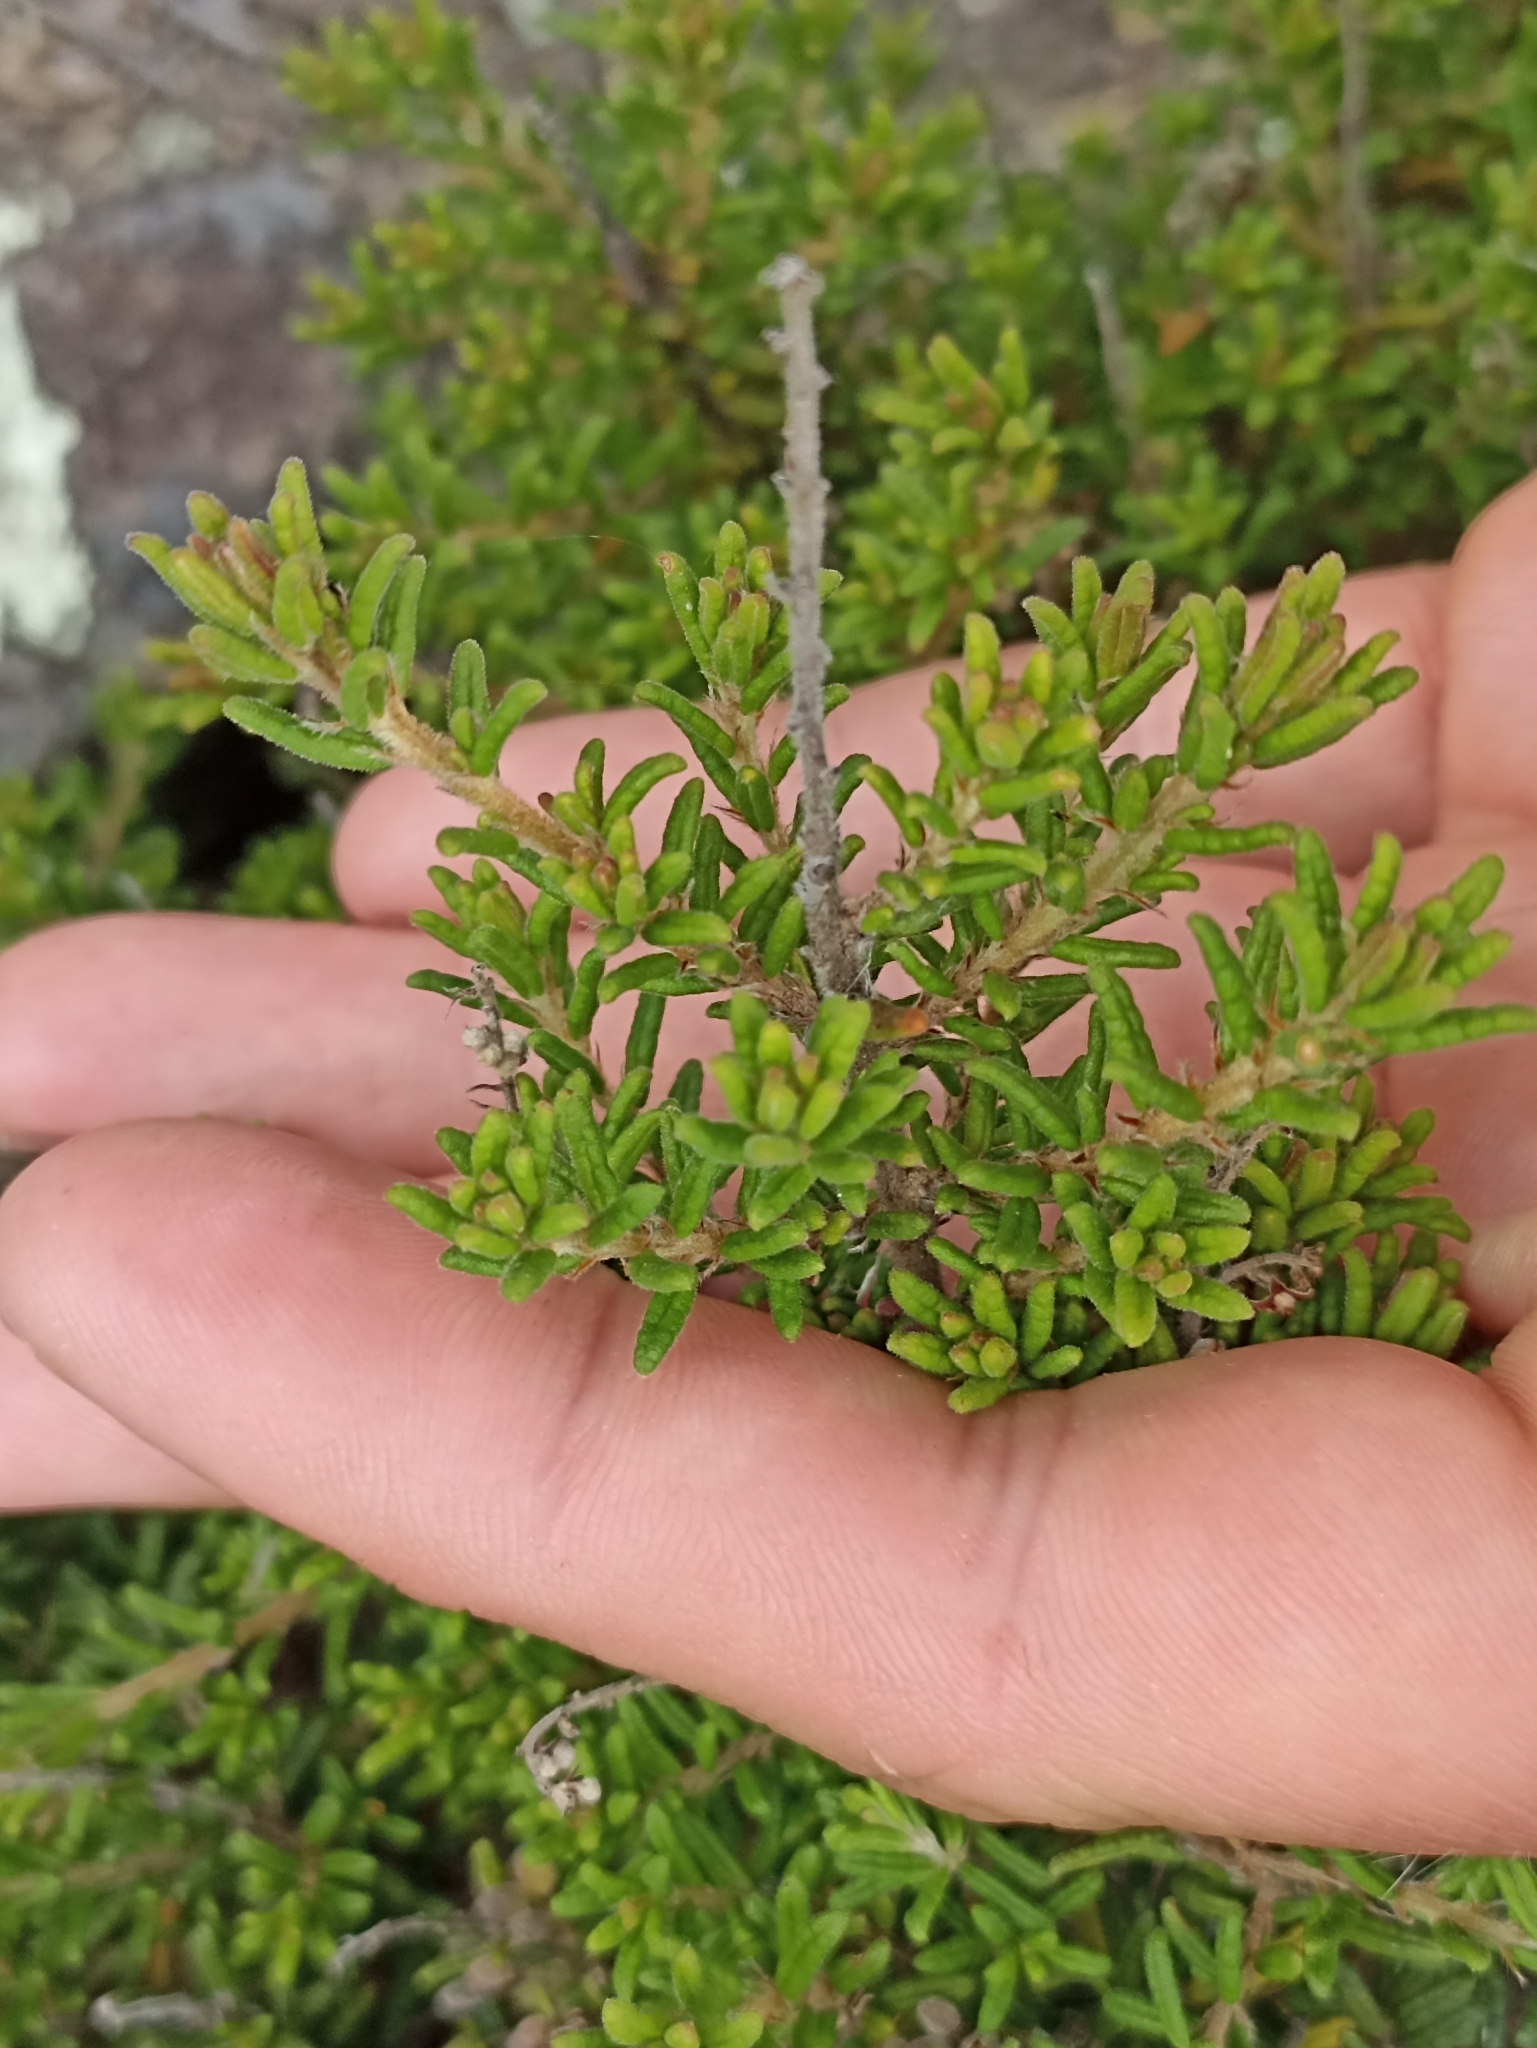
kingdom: Plantae
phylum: Tracheophyta
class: Magnoliopsida
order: Rosales
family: Rhamnaceae
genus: Pomaderris
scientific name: Pomaderris amoena
